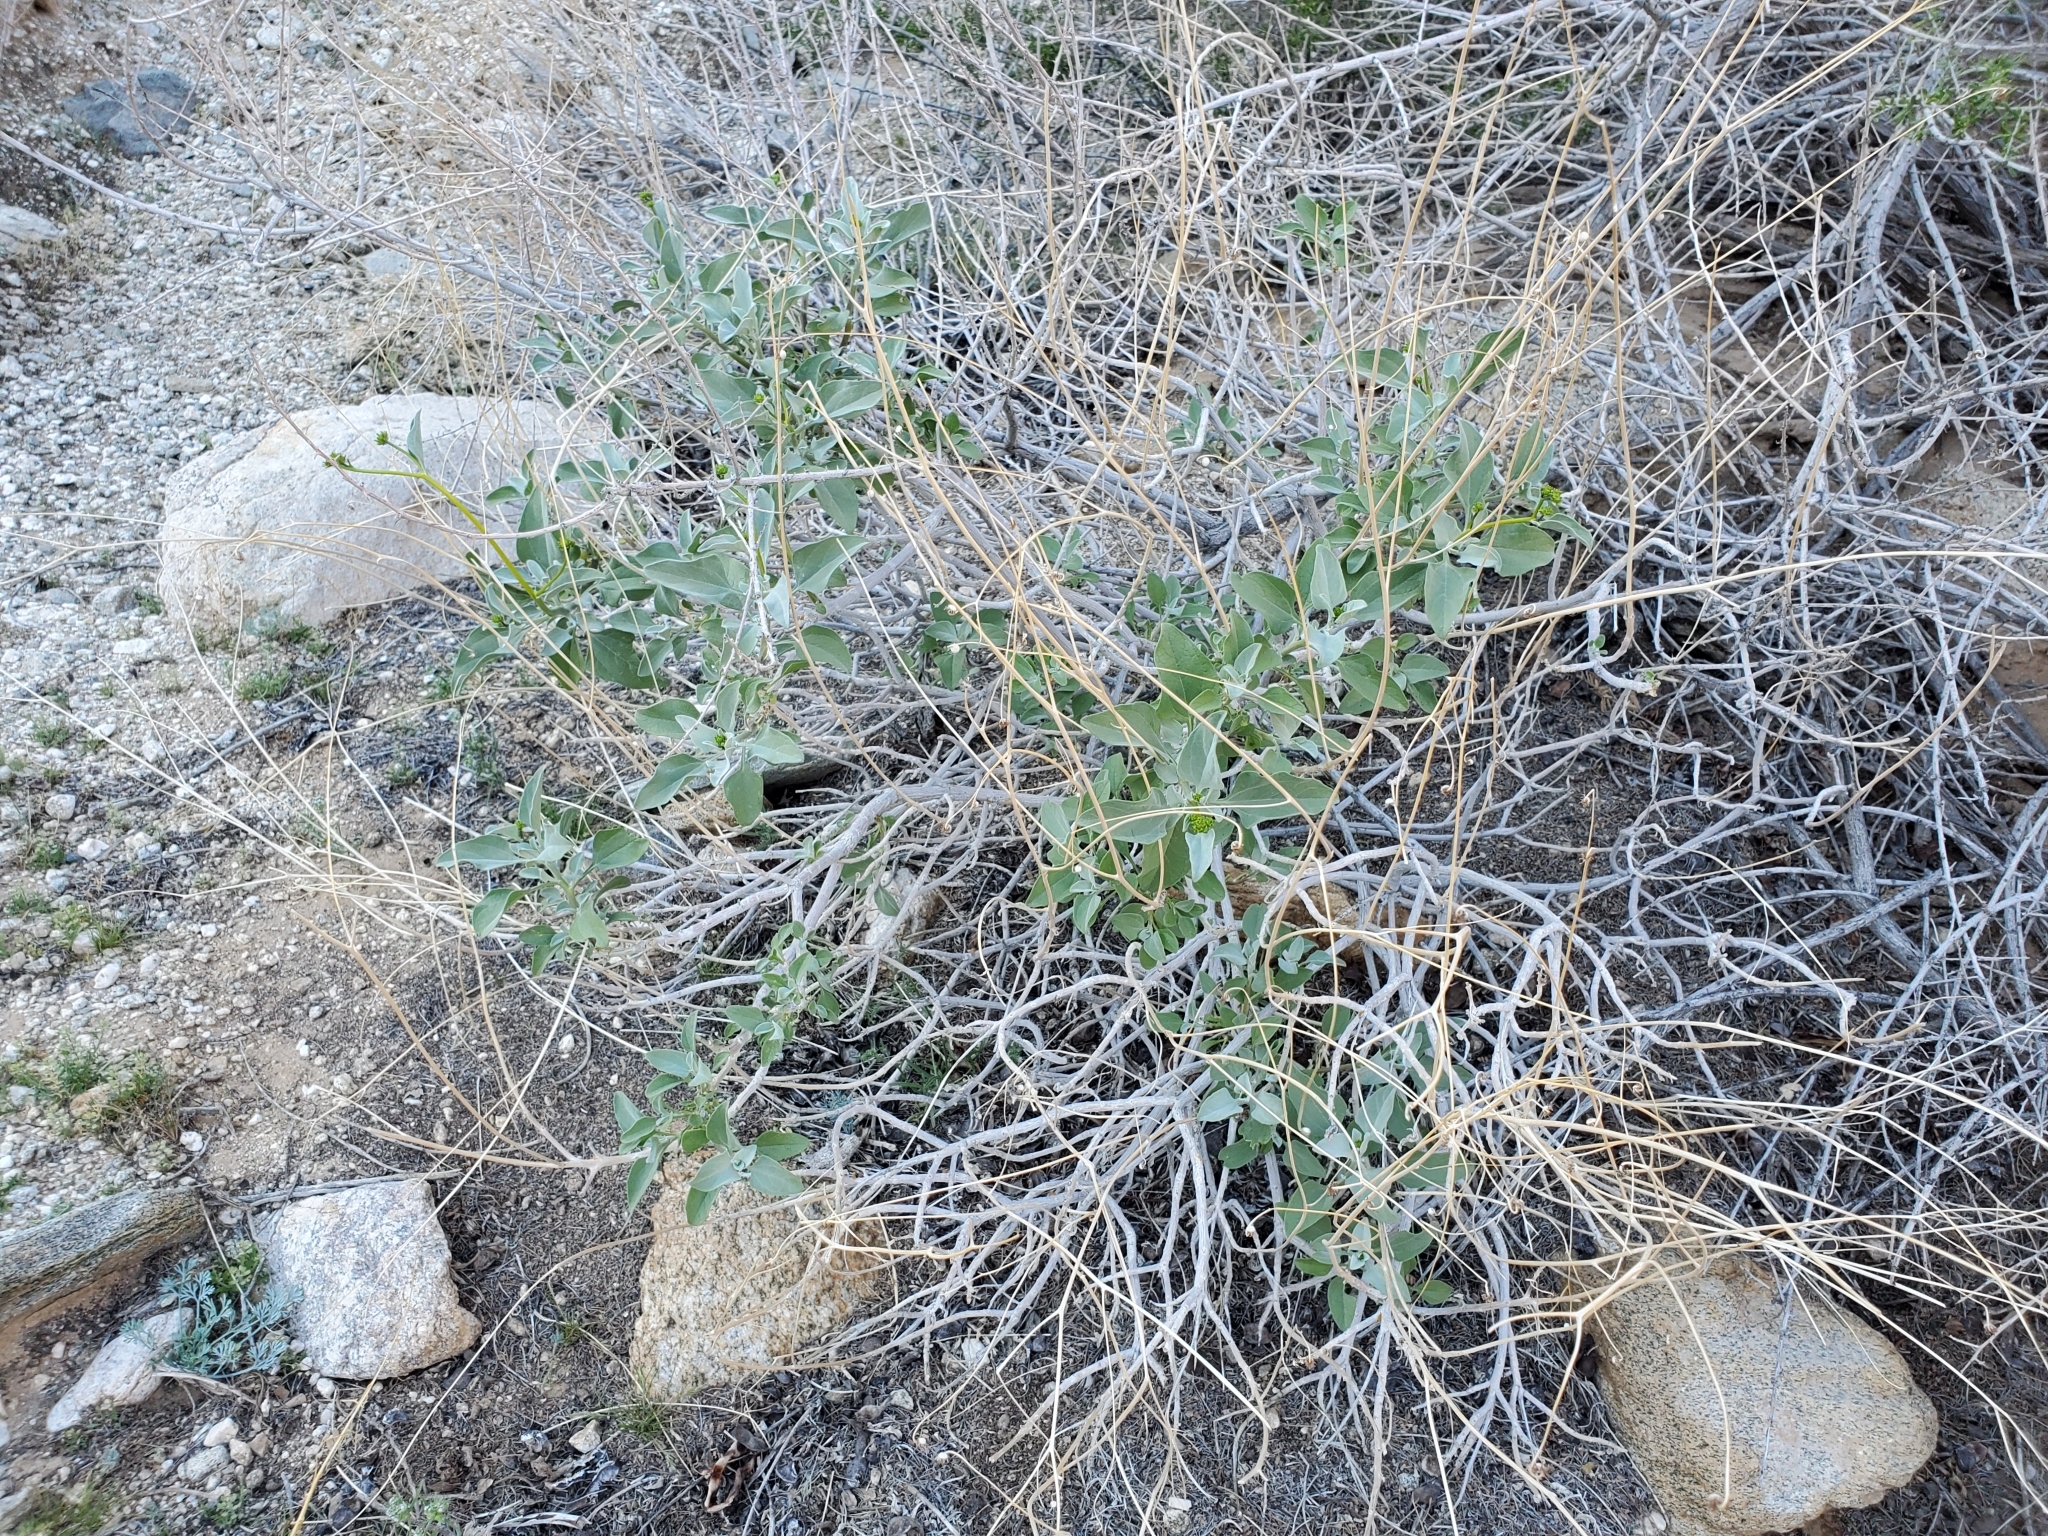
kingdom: Plantae
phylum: Tracheophyta
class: Magnoliopsida
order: Asterales
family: Asteraceae
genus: Encelia
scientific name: Encelia farinosa
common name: Brittlebush
